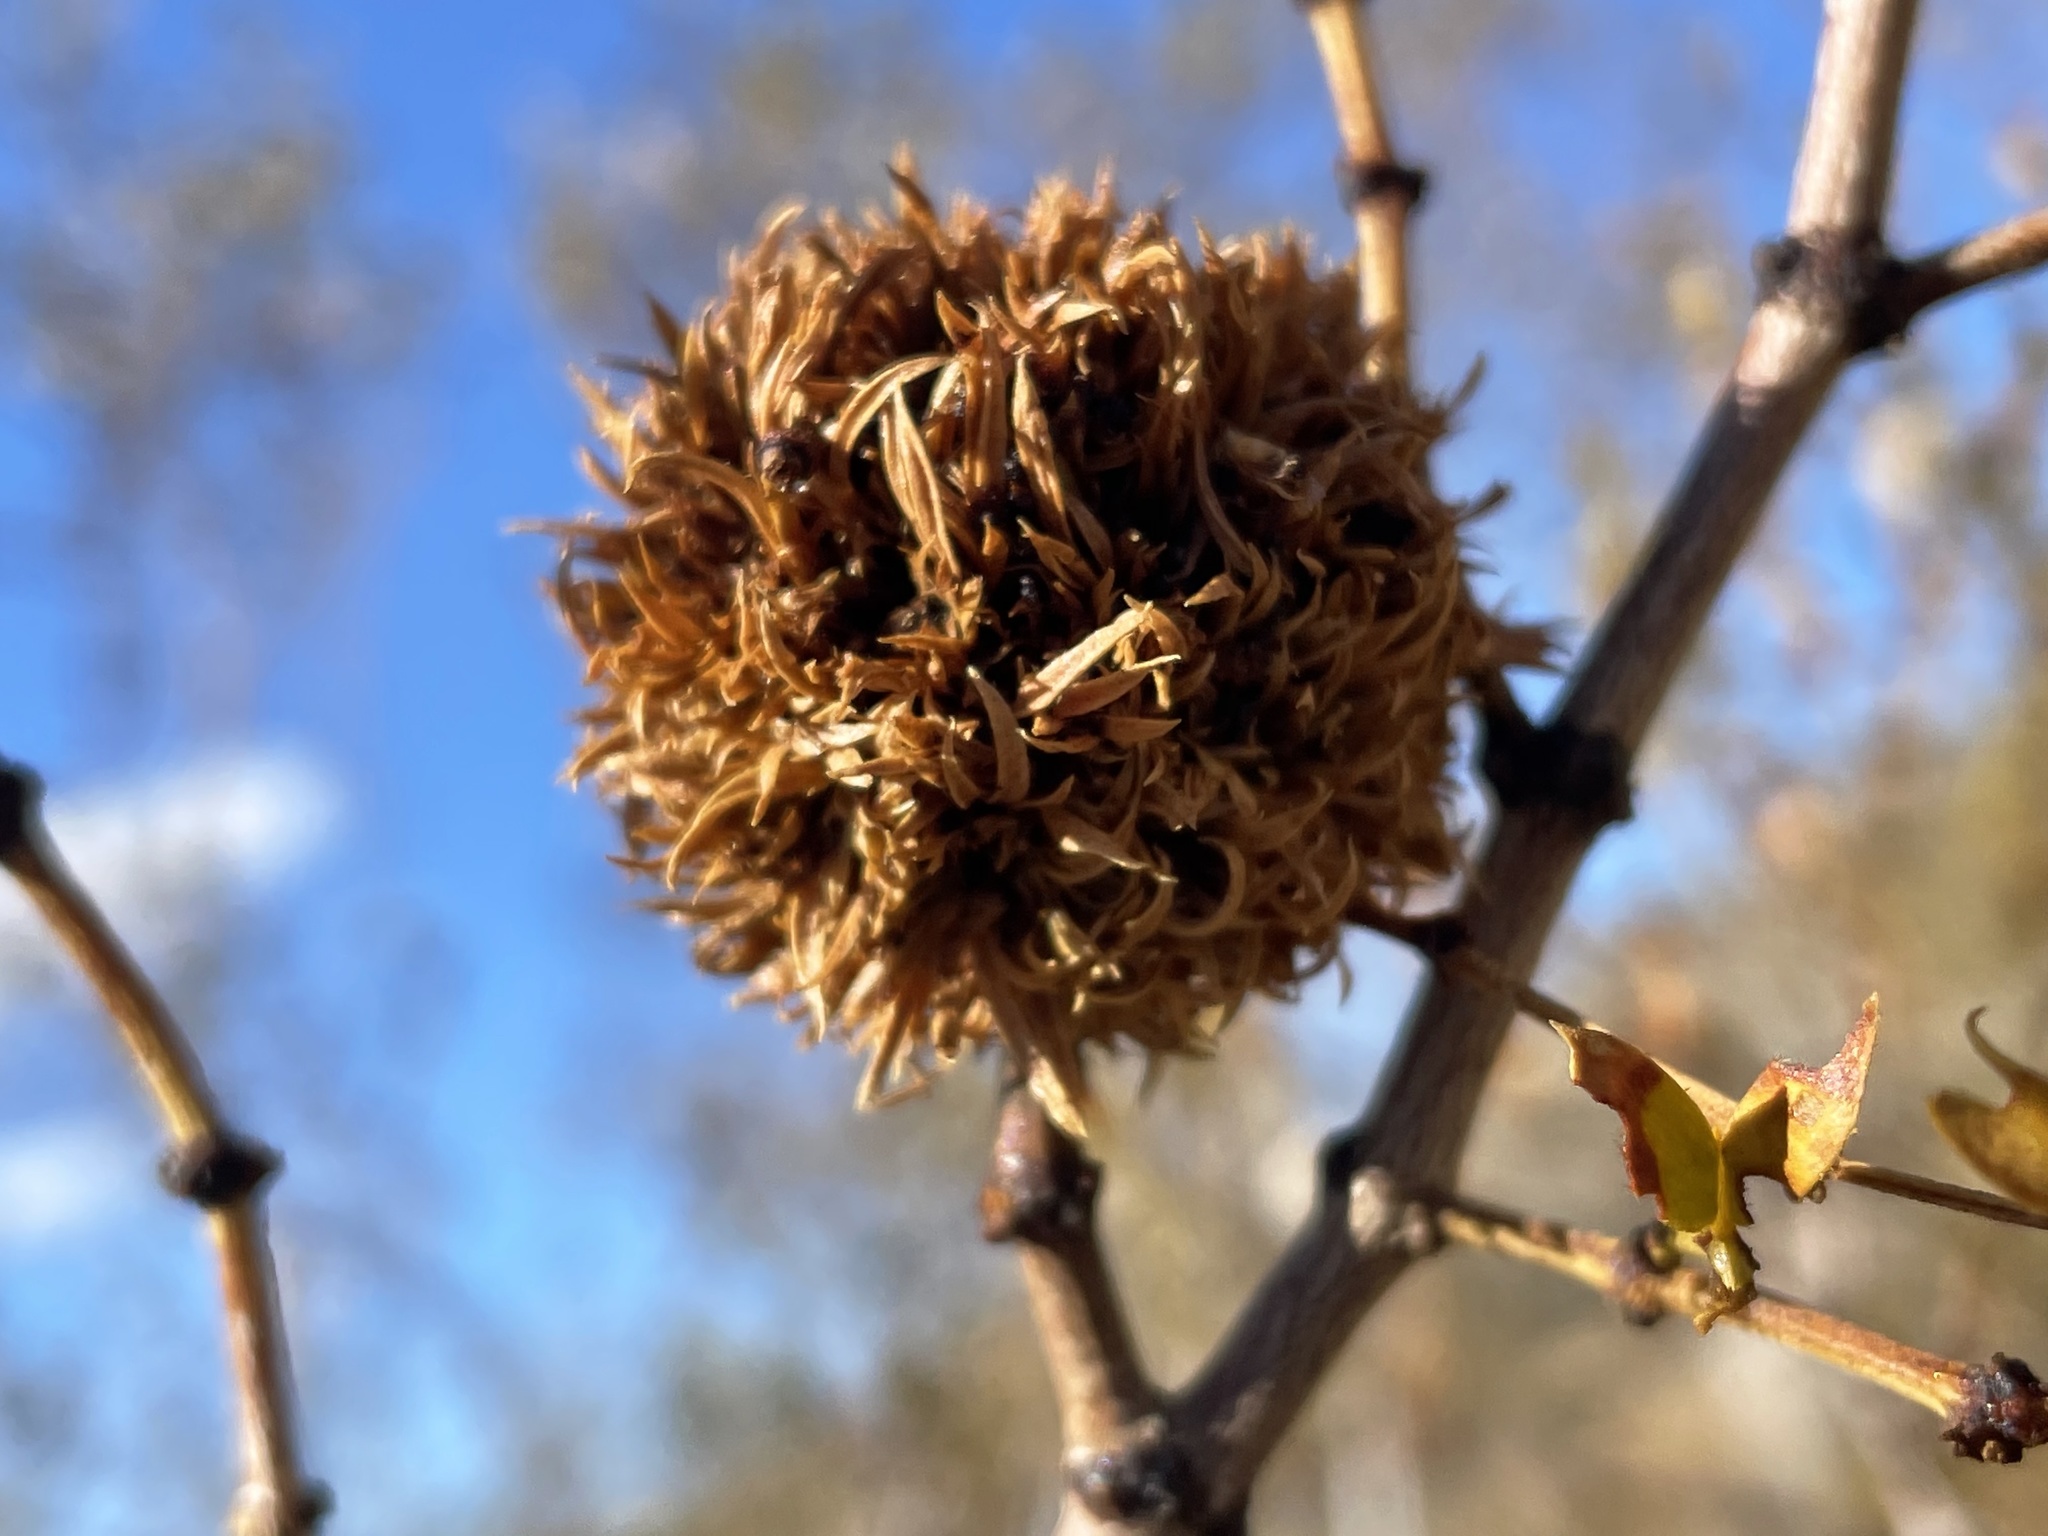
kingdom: Animalia
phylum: Arthropoda
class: Insecta
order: Diptera
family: Cecidomyiidae
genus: Asphondylia
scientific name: Asphondylia auripila
